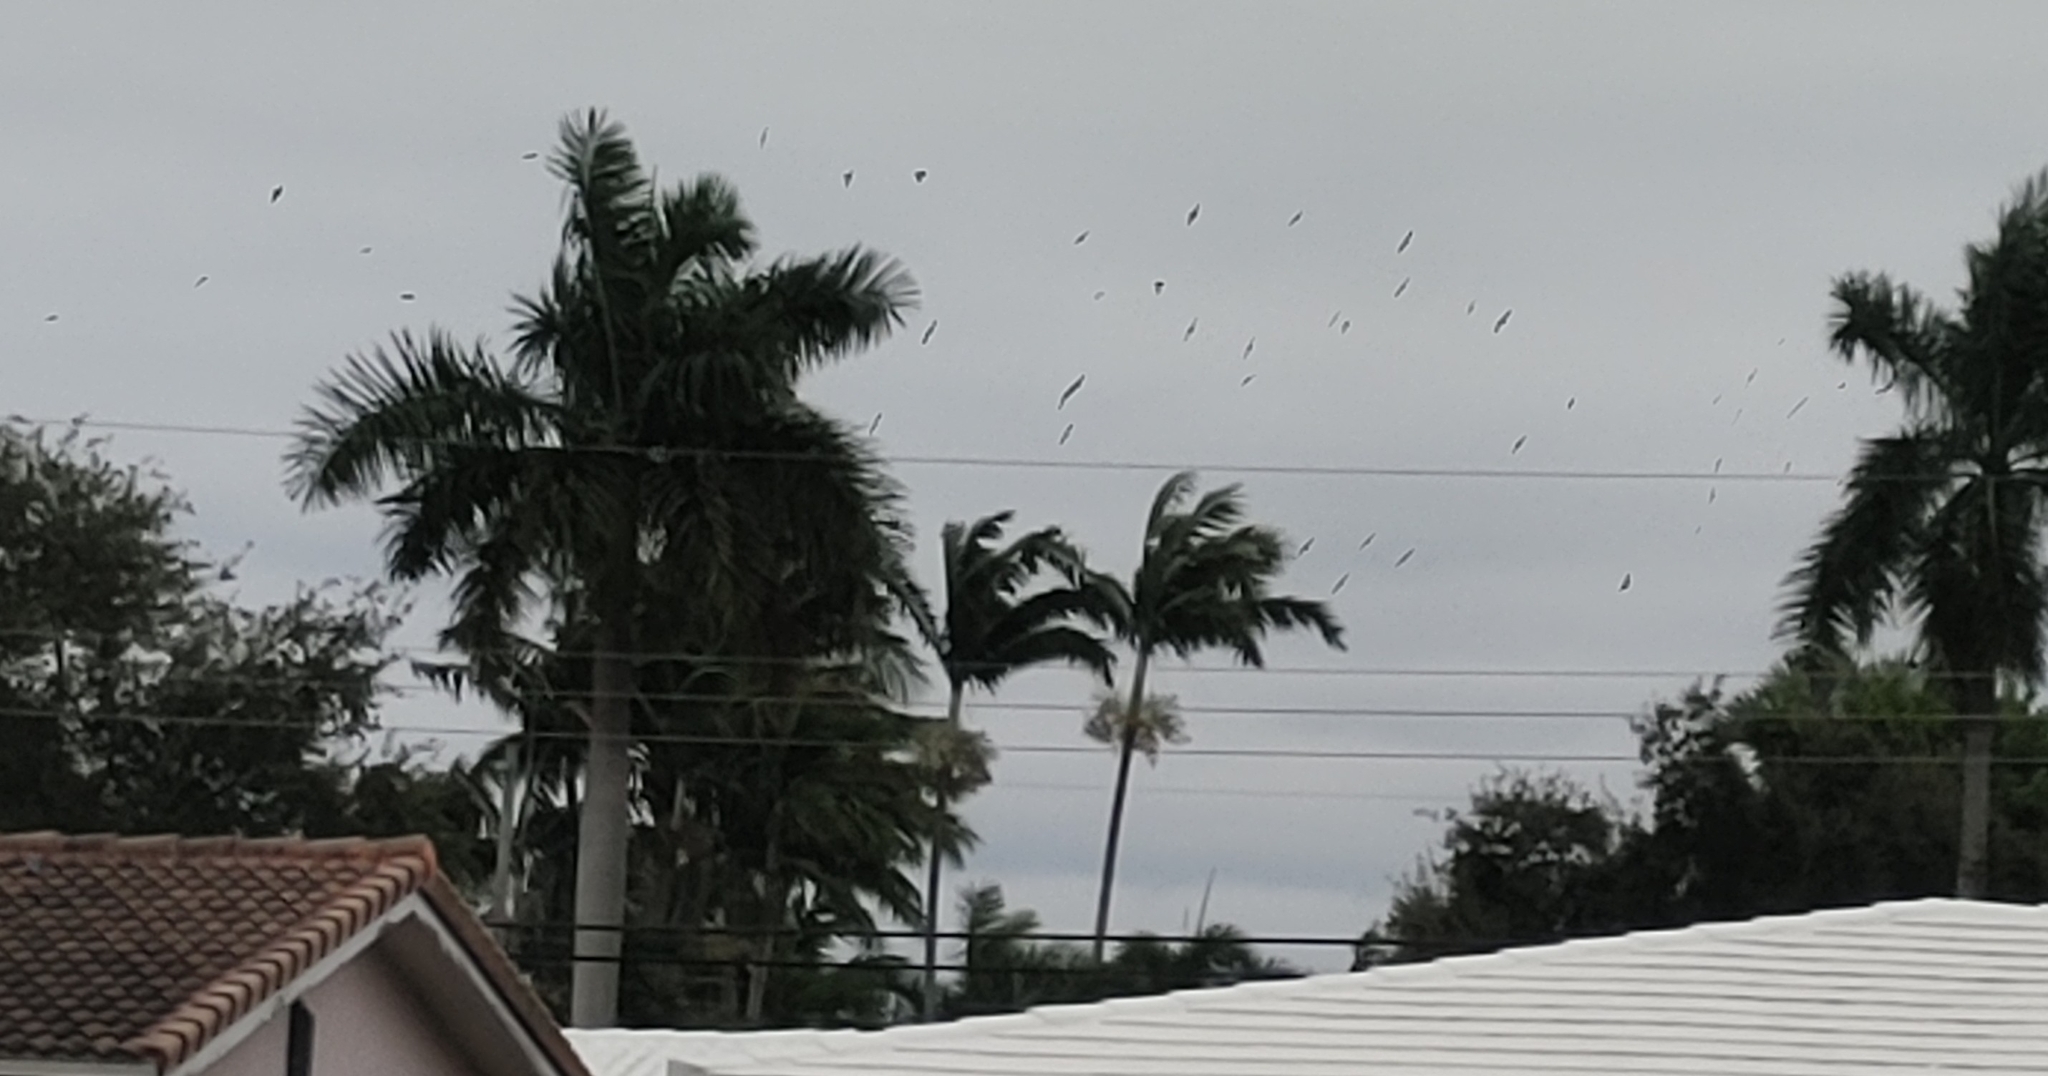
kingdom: Animalia
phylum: Chordata
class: Aves
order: Passeriformes
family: Sturnidae
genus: Sturnus
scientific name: Sturnus vulgaris
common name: Common starling
